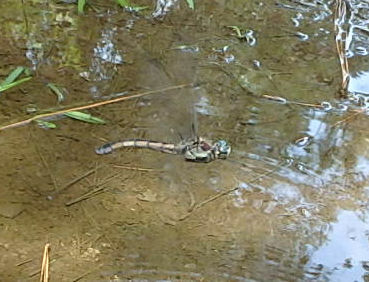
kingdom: Animalia
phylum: Arthropoda
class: Insecta
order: Odonata
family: Libellulidae
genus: Libellula
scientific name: Libellula vibrans
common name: Great blue skimmer
